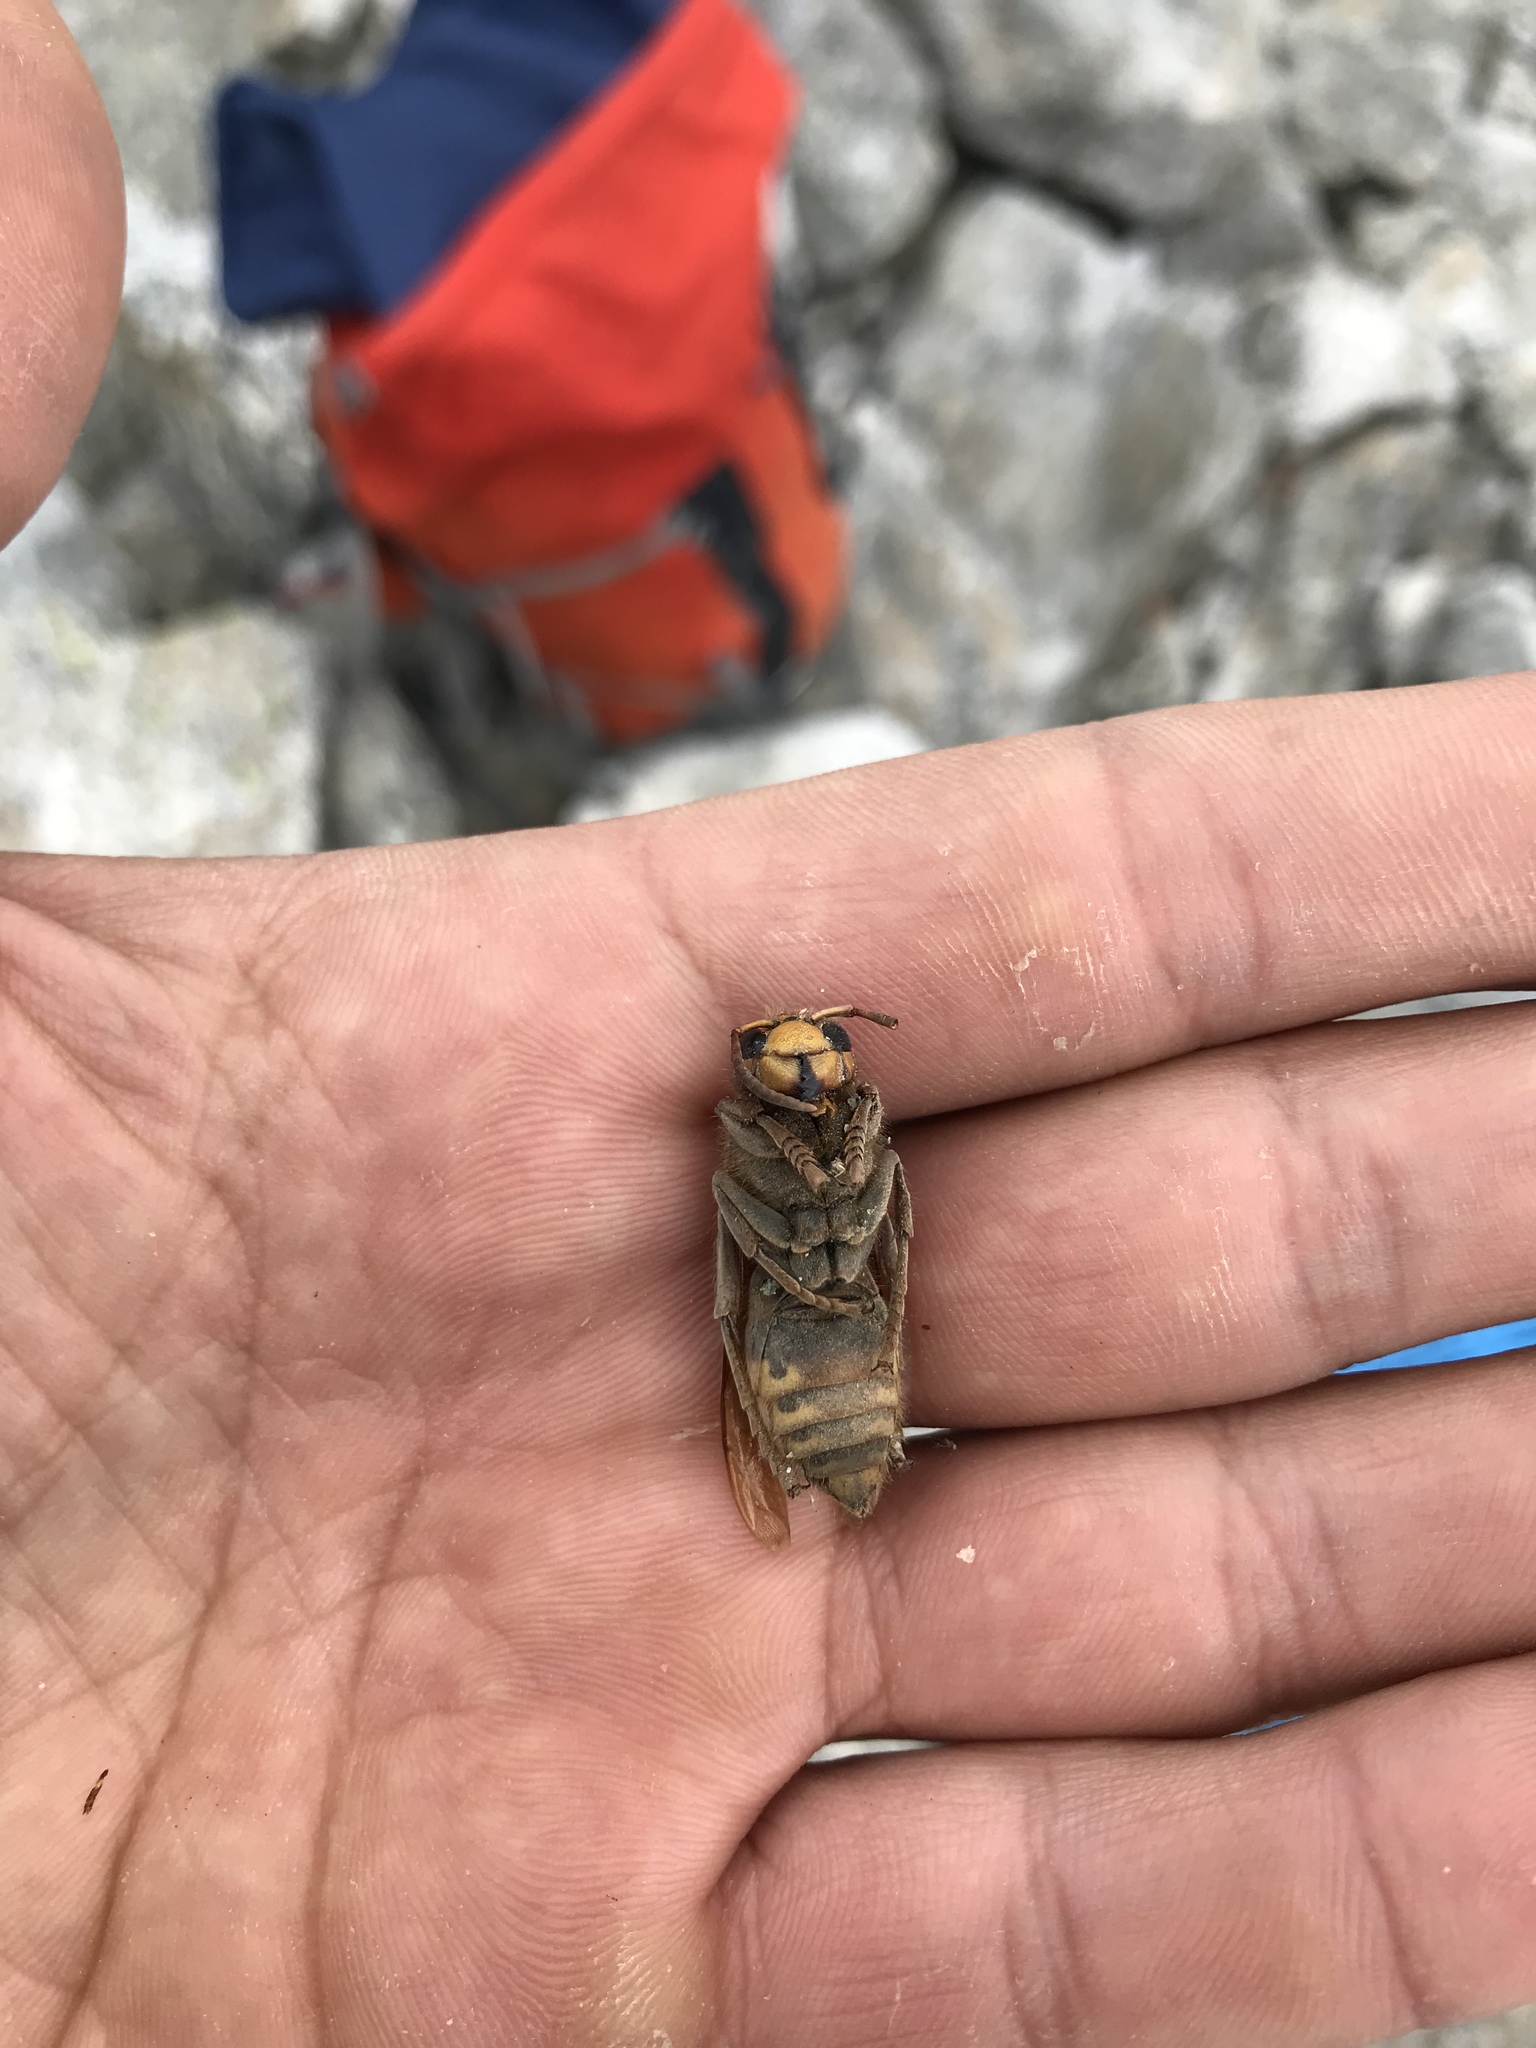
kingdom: Animalia
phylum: Arthropoda
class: Insecta
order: Hymenoptera
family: Vespidae
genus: Vespa
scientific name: Vespa crabro
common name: Hornet
